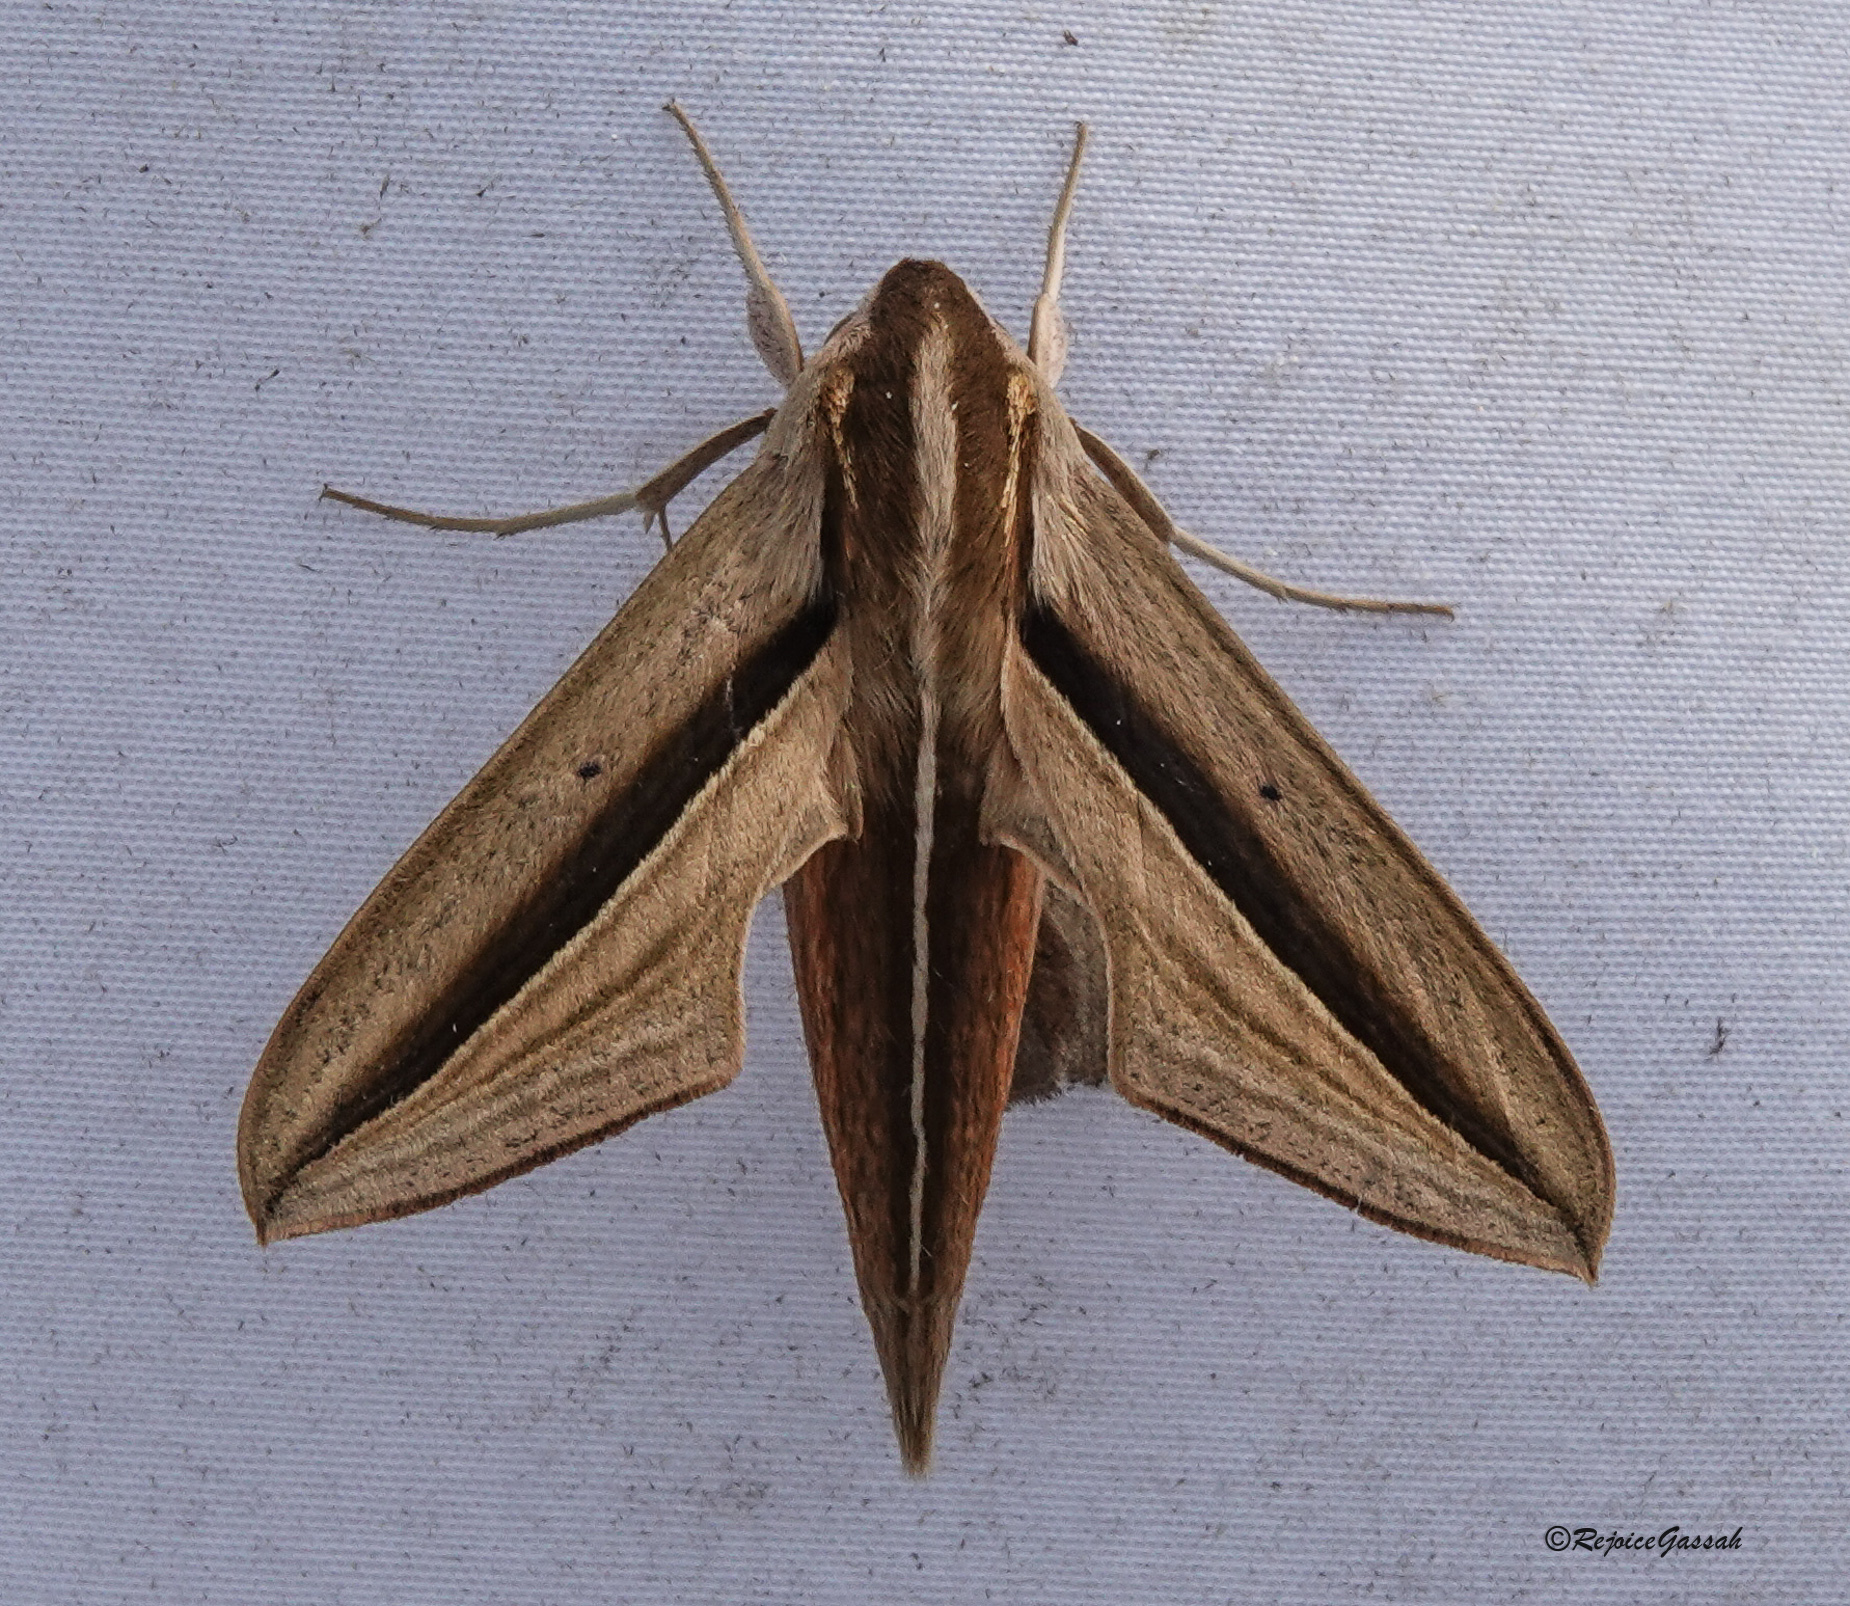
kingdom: Animalia
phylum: Arthropoda
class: Insecta
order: Lepidoptera
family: Sphingidae
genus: Theretra
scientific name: Theretra silhetensis
